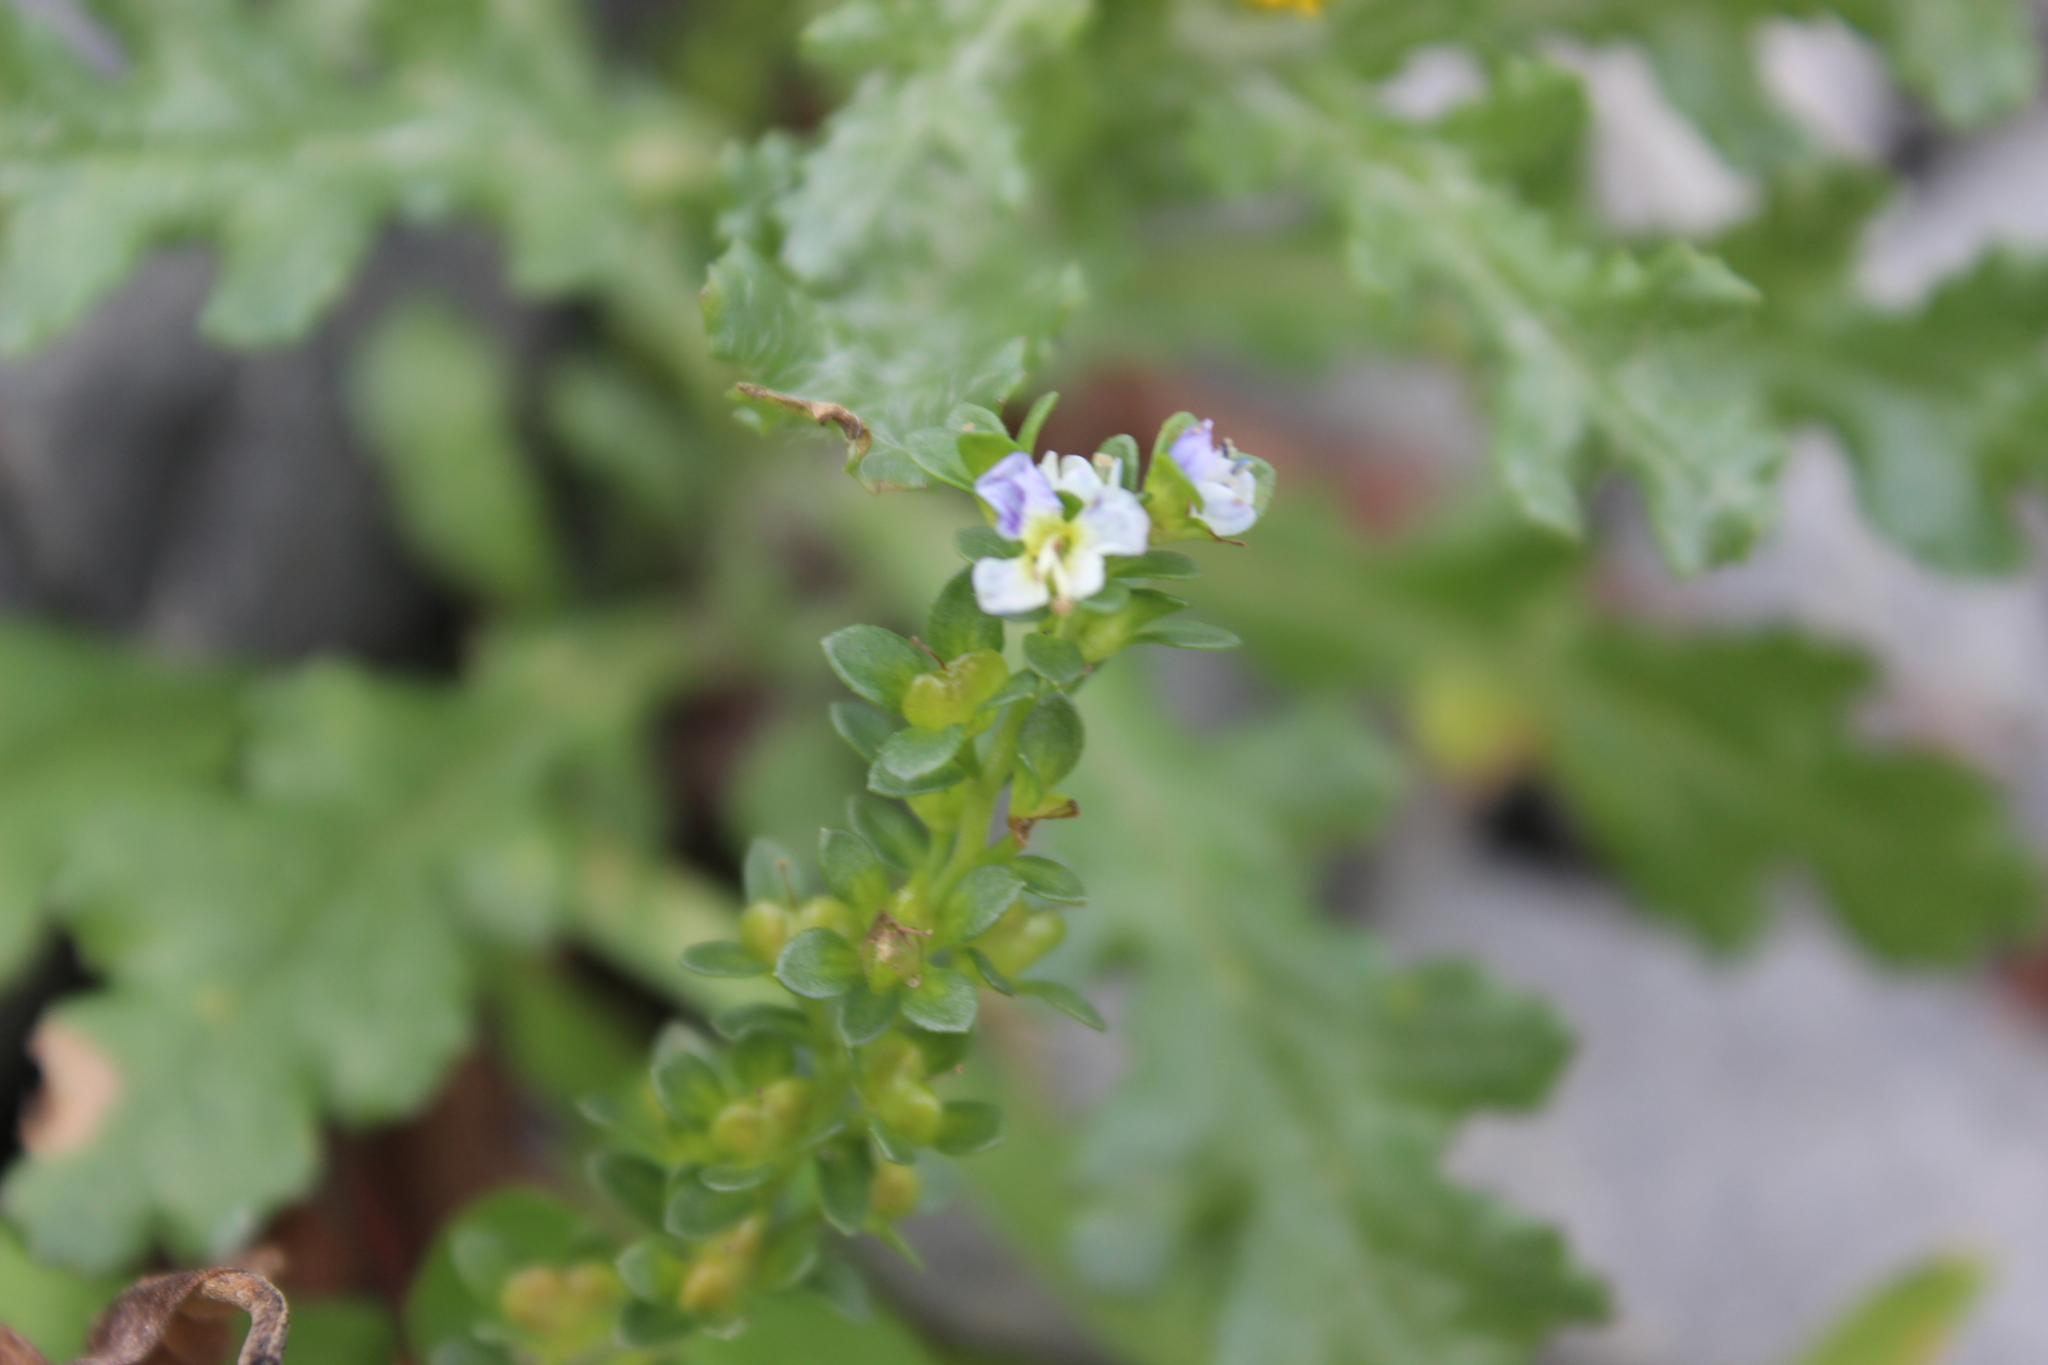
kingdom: Plantae
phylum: Tracheophyta
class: Magnoliopsida
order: Lamiales
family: Plantaginaceae
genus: Veronica
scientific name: Veronica serpyllifolia
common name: Thyme-leaved speedwell
